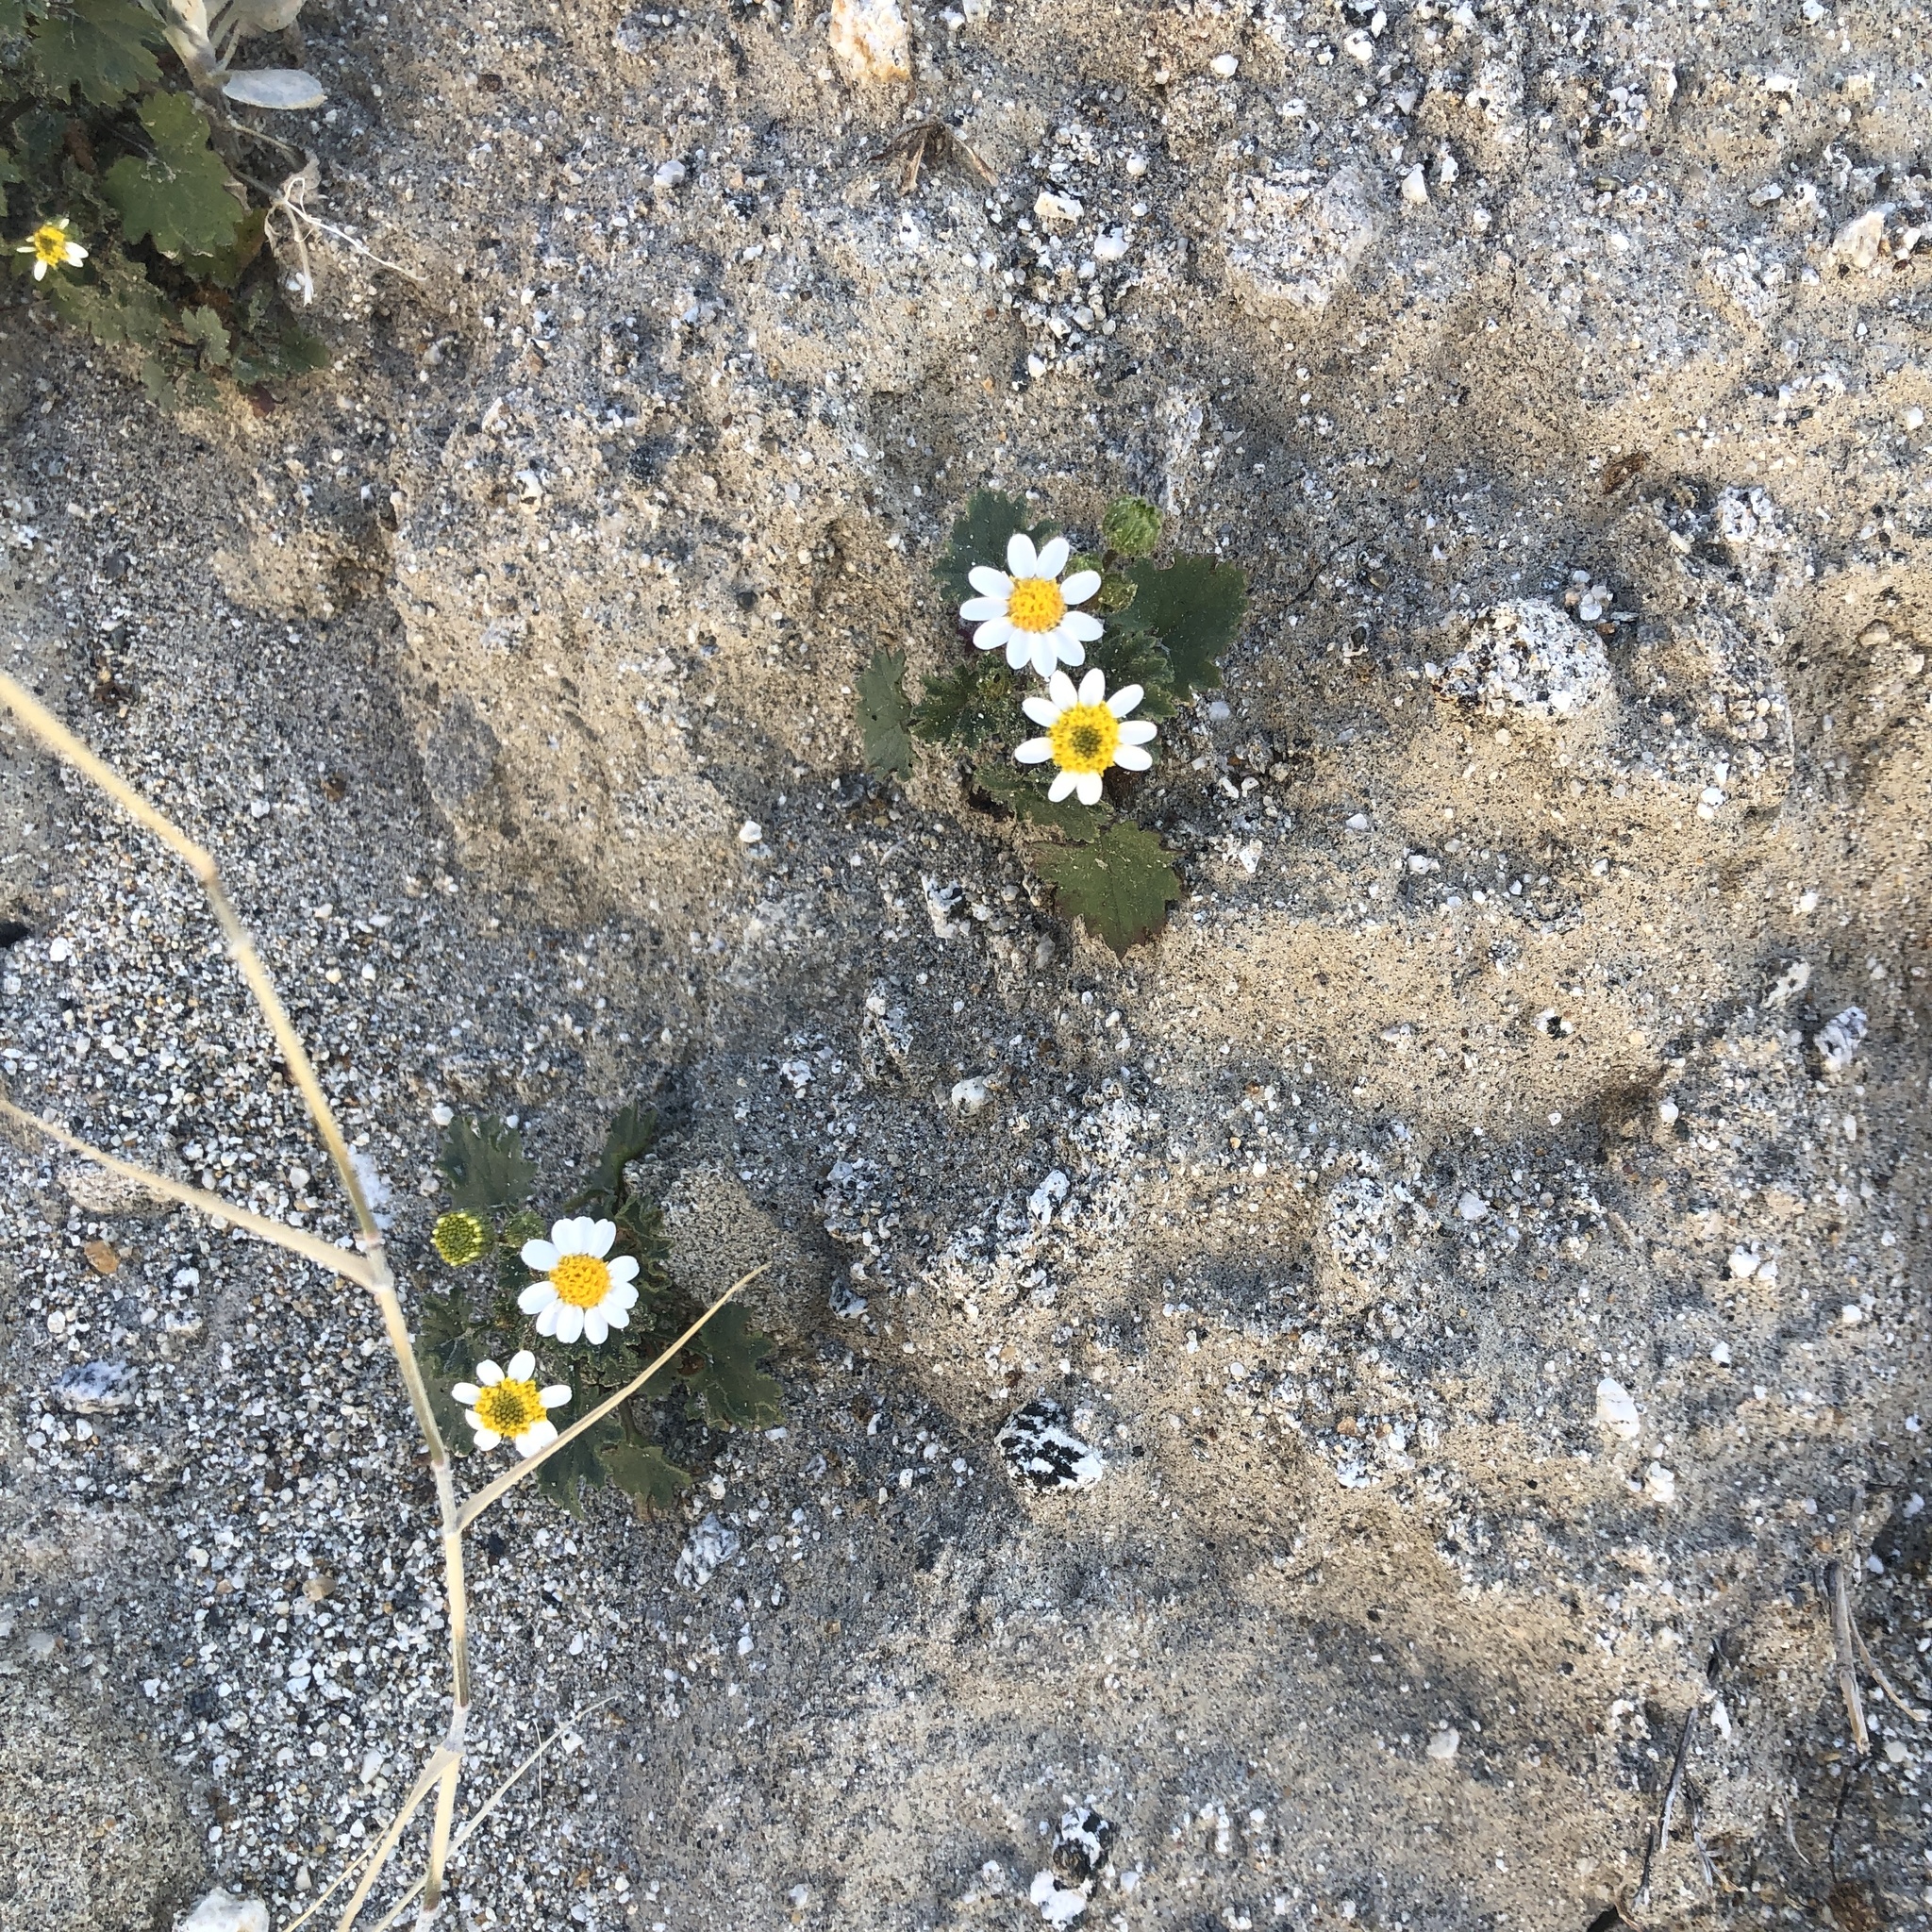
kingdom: Plantae
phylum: Tracheophyta
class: Magnoliopsida
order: Asterales
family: Asteraceae
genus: Laphamia
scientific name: Laphamia emoryi
